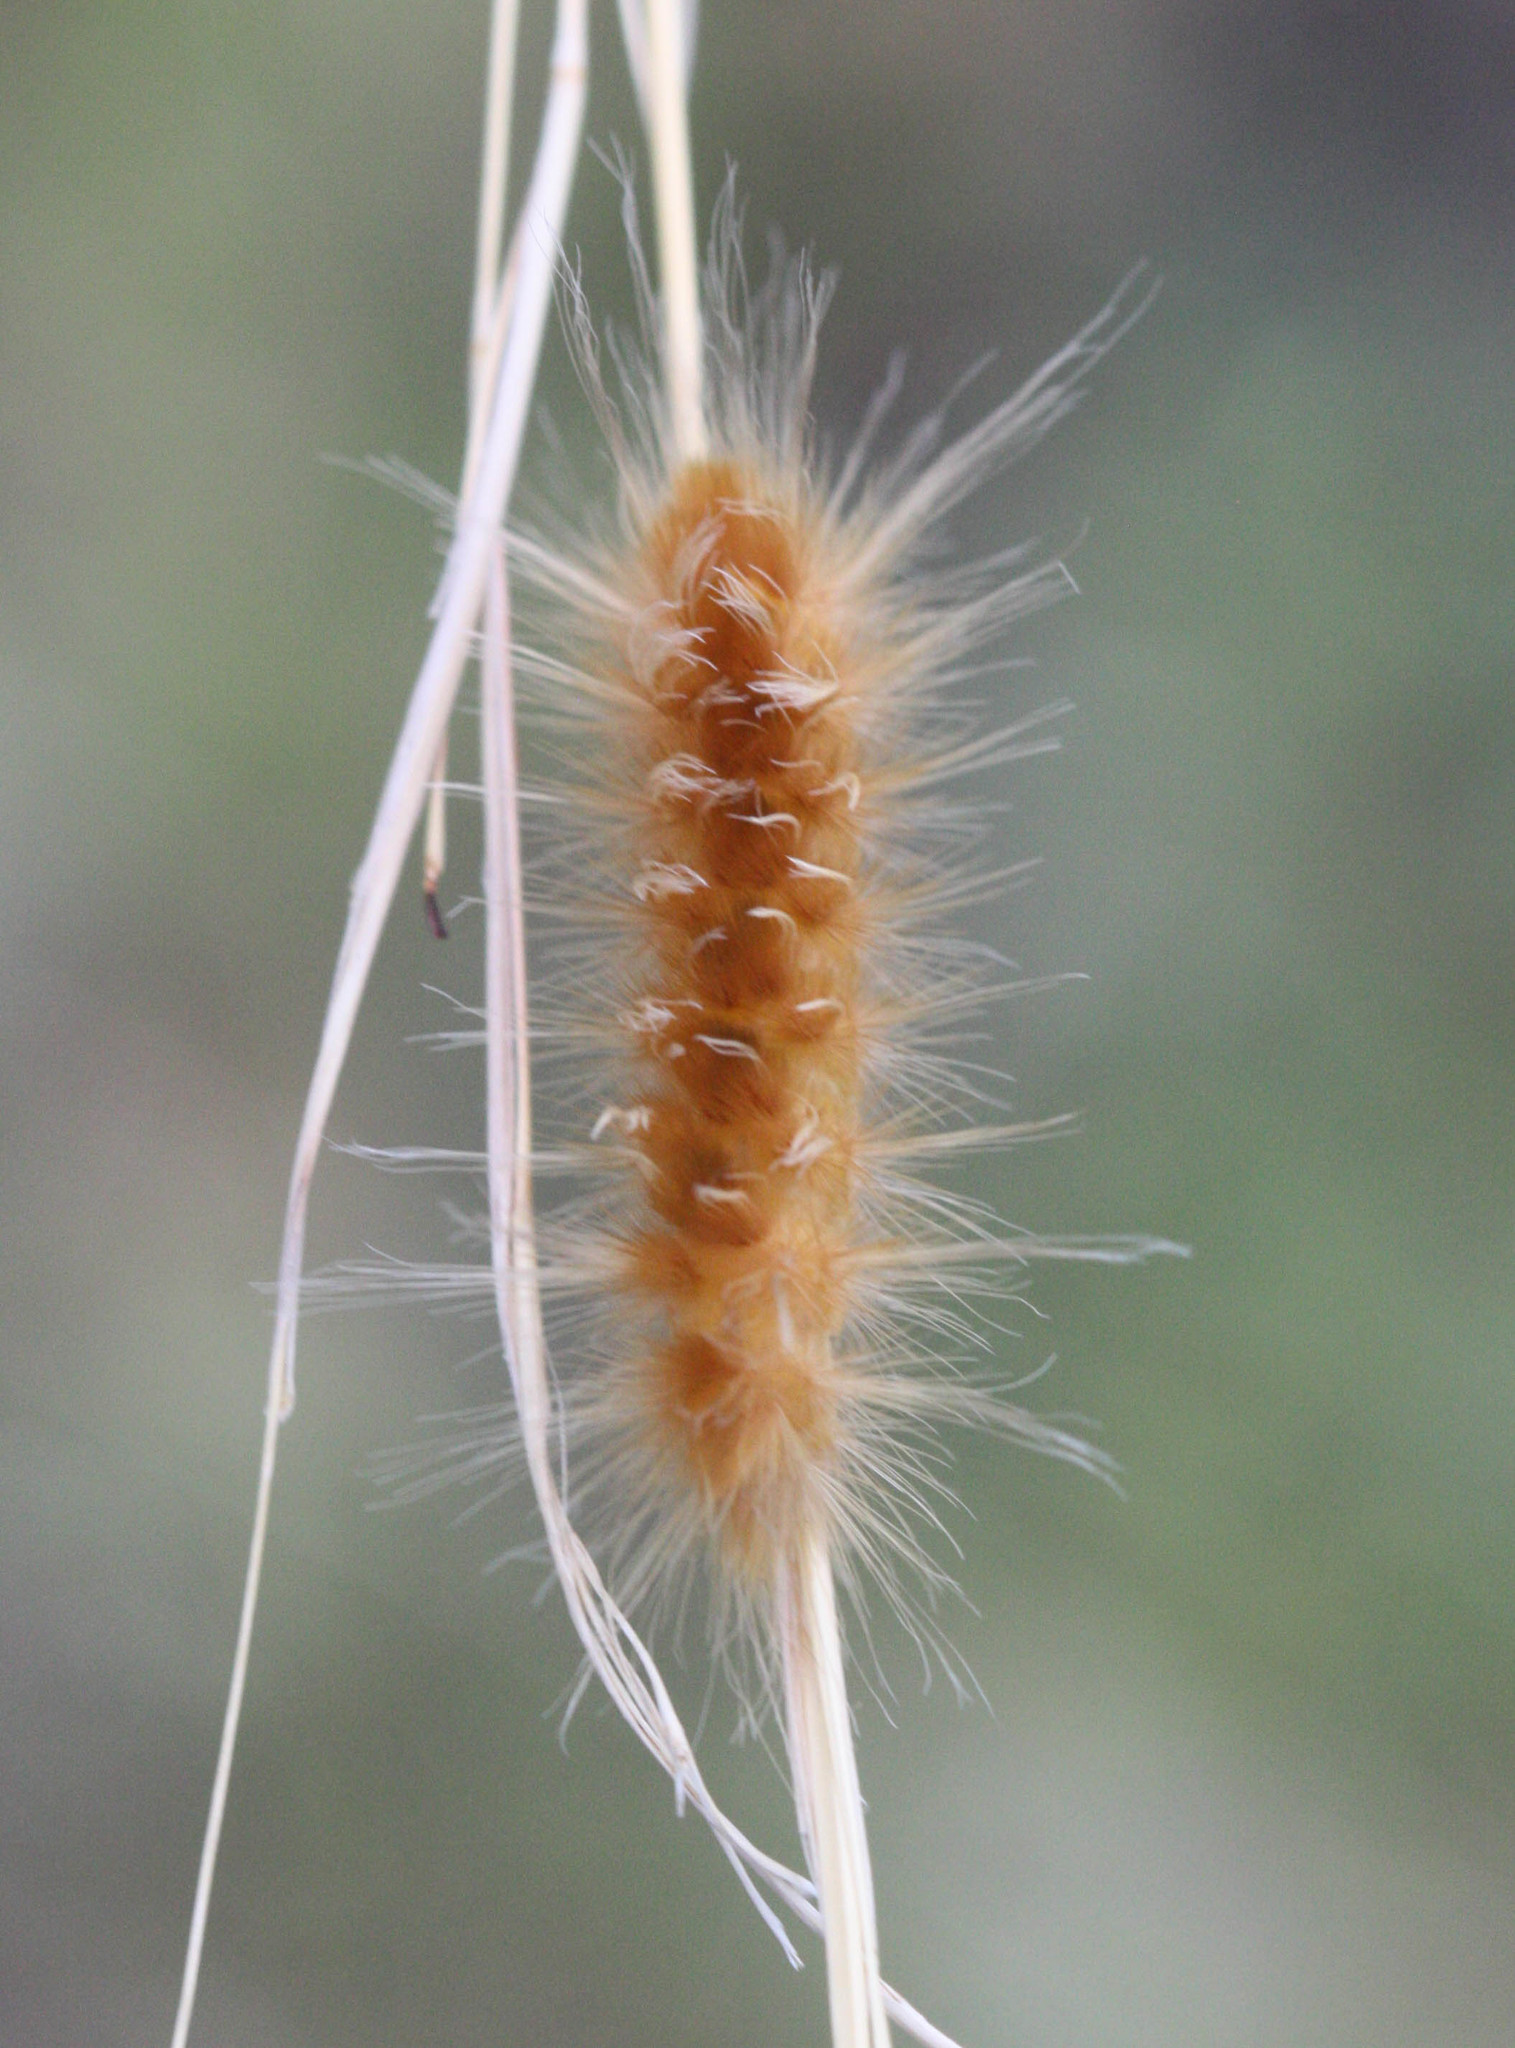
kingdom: Animalia
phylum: Arthropoda
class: Insecta
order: Lepidoptera
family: Erebidae
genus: Pygarctia
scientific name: Pygarctia roseicapitis
